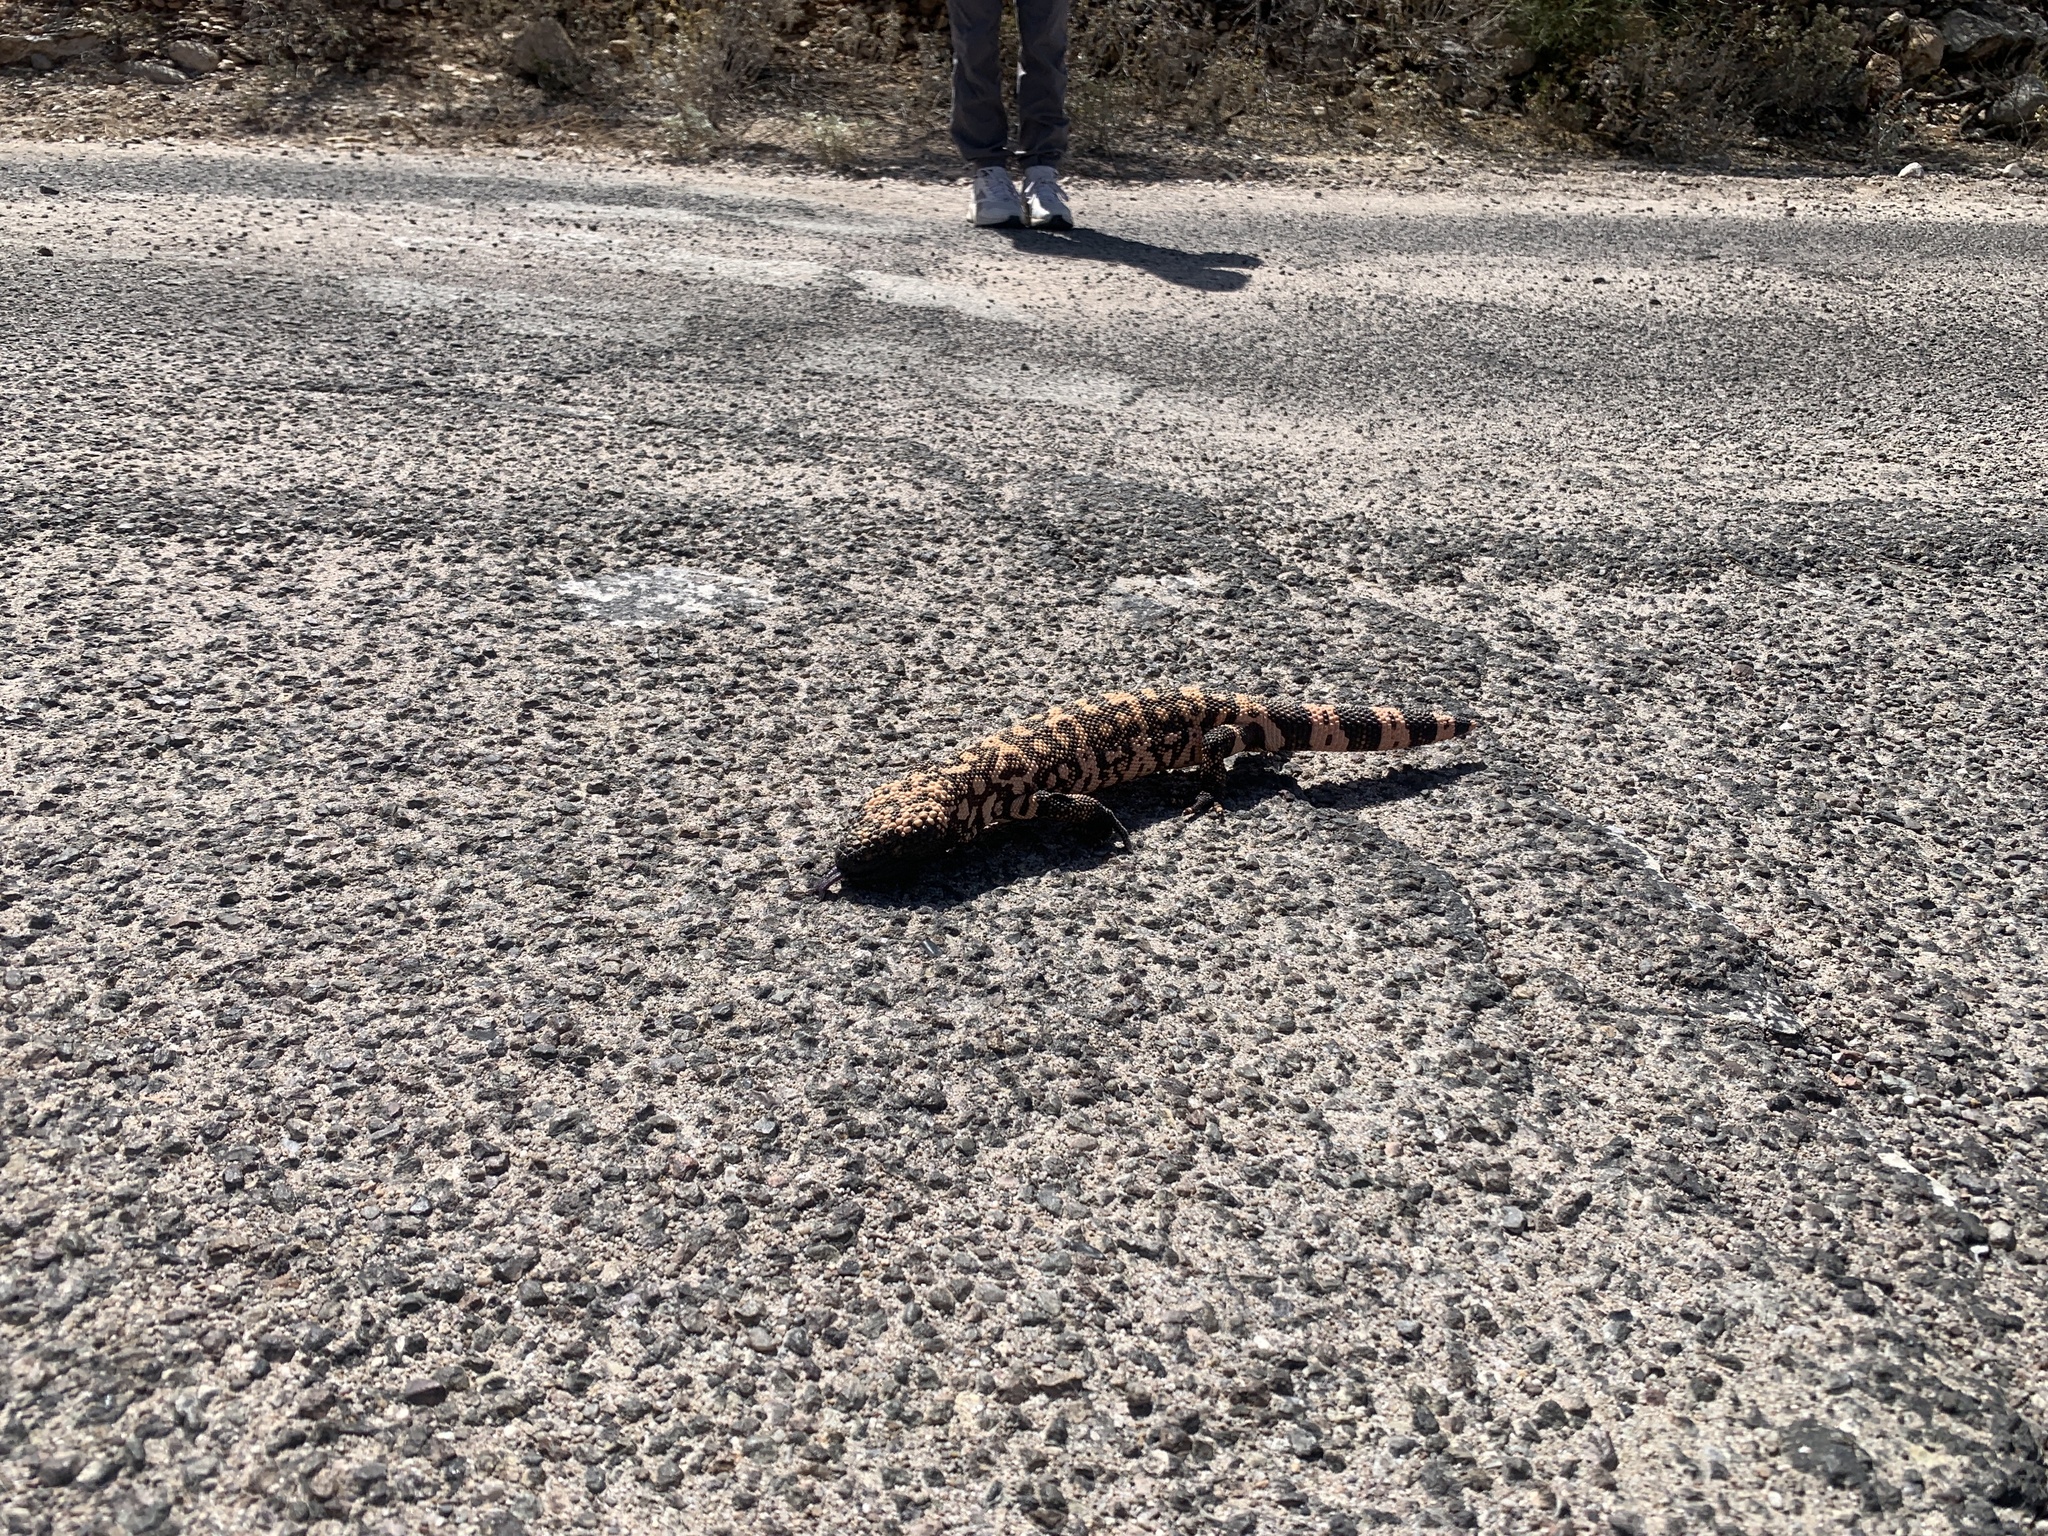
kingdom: Animalia
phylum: Chordata
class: Squamata
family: Helodermatidae
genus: Heloderma
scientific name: Heloderma suspectum
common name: Gila monster
